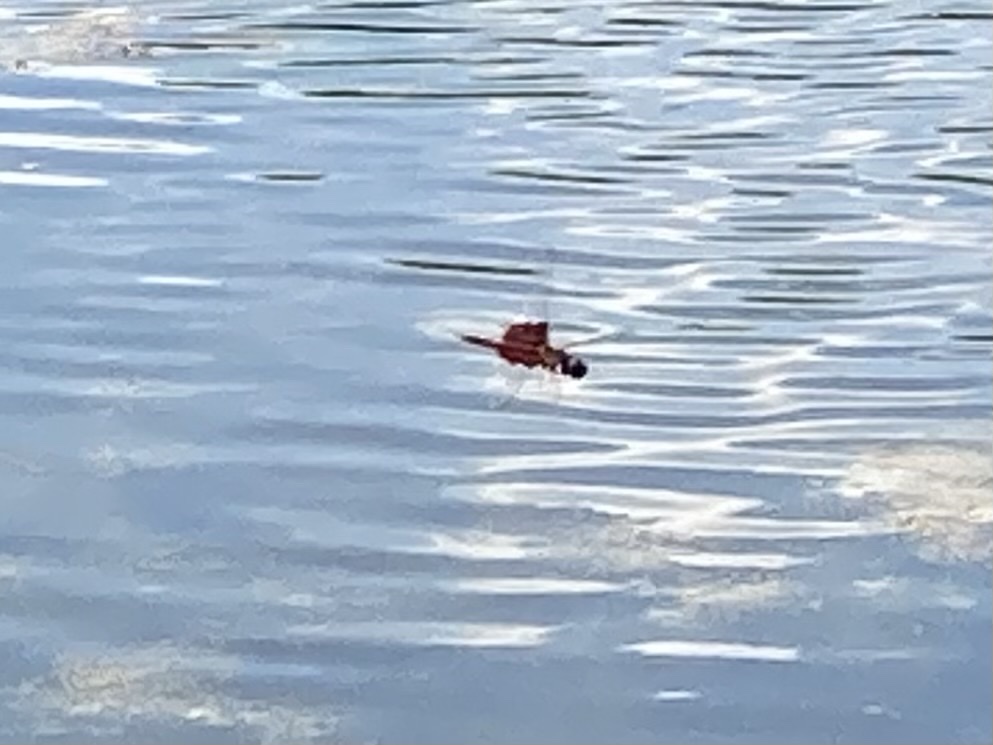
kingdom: Animalia
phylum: Arthropoda
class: Insecta
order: Odonata
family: Libellulidae
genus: Tramea
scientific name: Tramea carolina
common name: Carolina saddlebags
